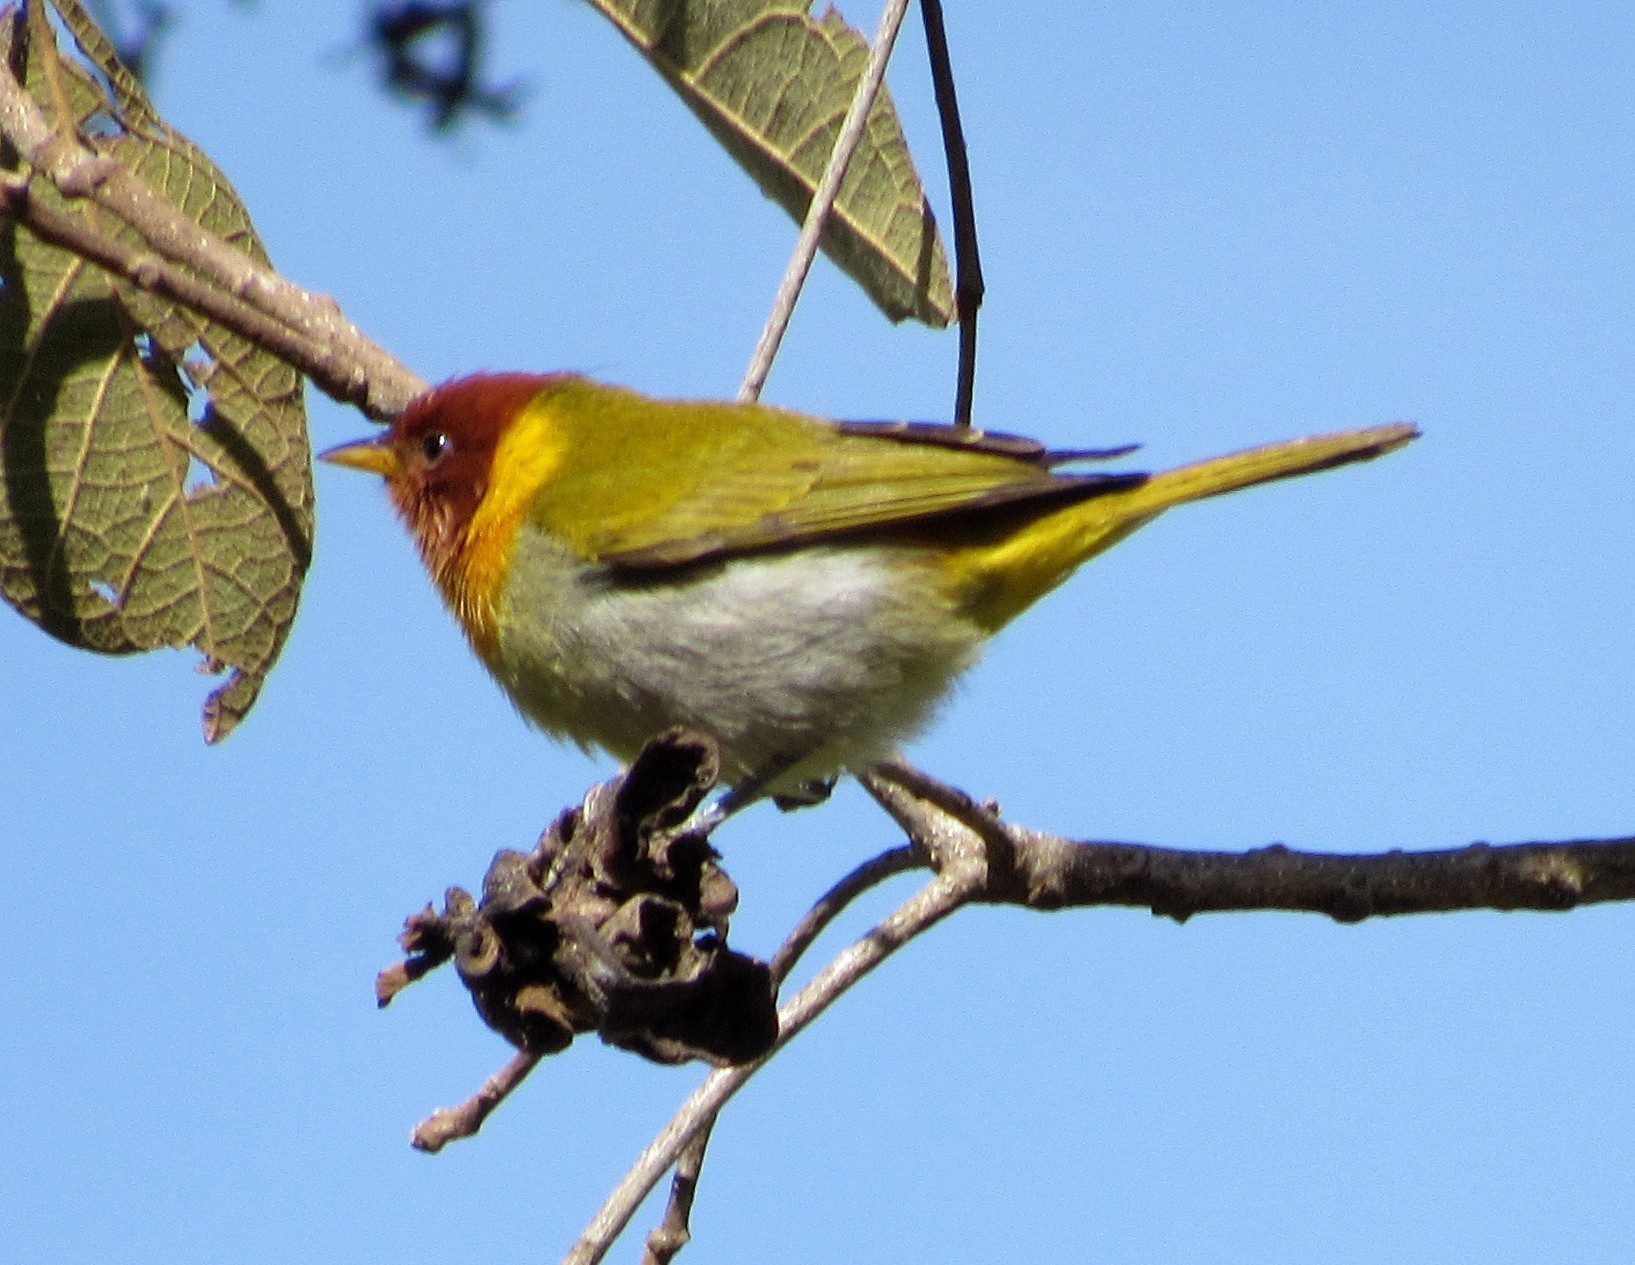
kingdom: Animalia
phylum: Chordata
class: Aves
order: Passeriformes
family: Thraupidae
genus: Hemithraupis
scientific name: Hemithraupis ruficapilla
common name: Rufous-headed tanager
